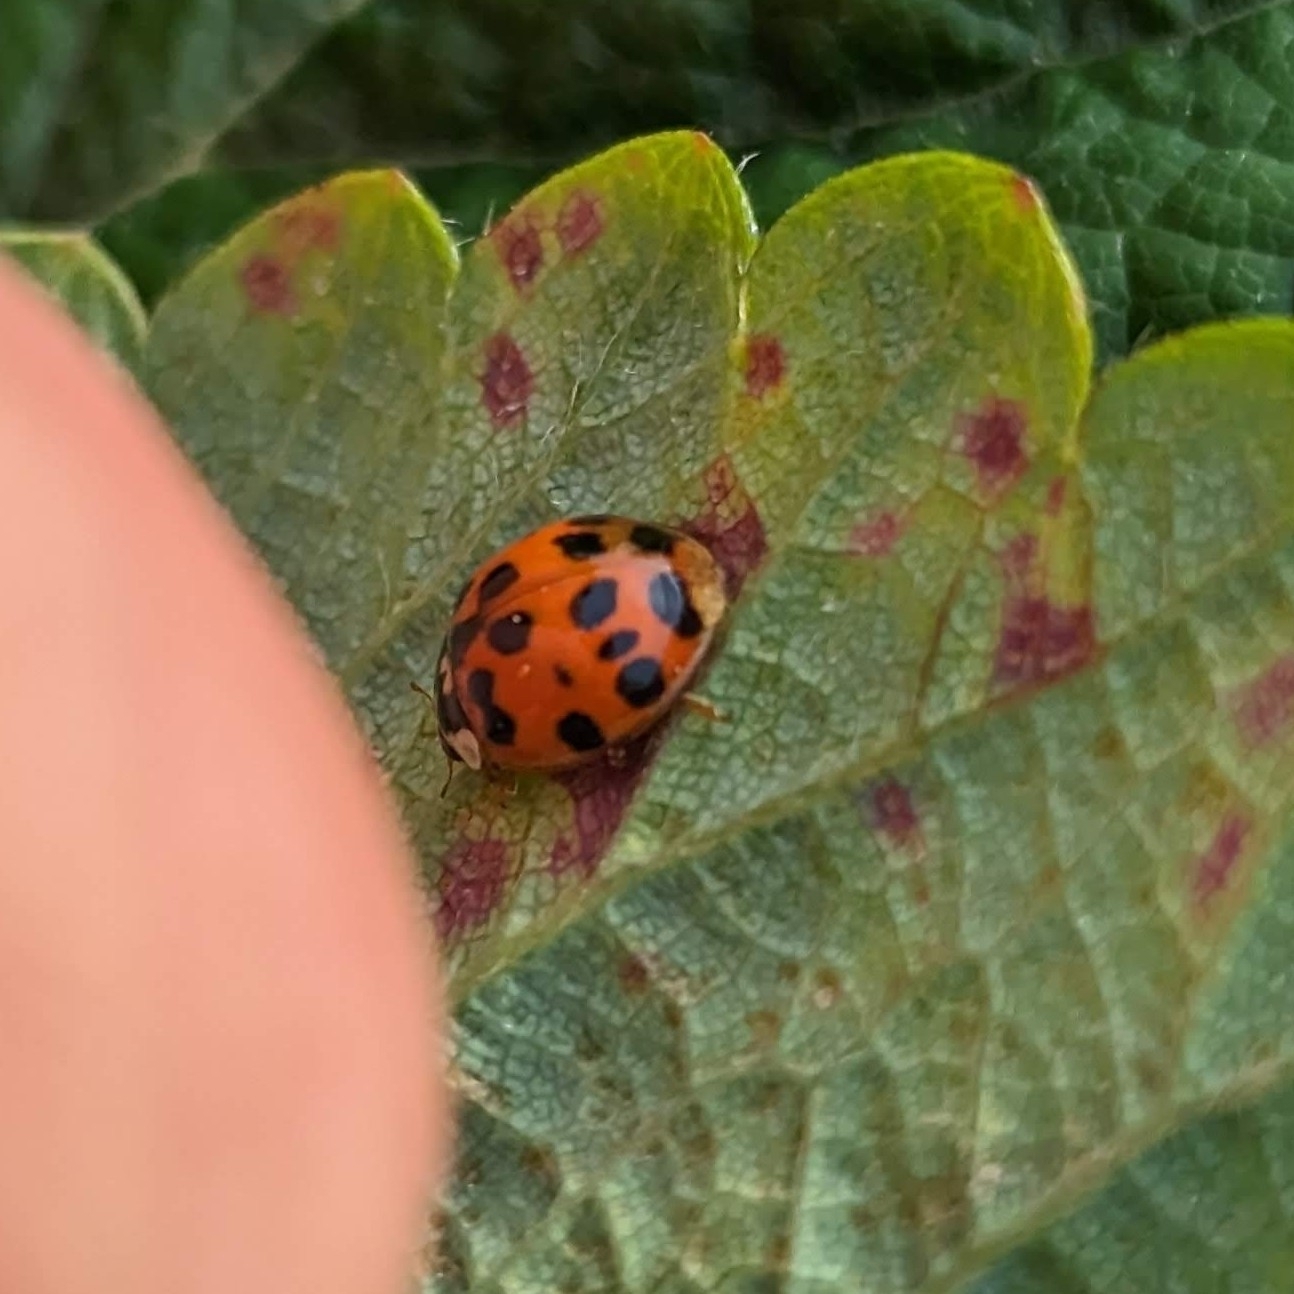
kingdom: Animalia
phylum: Arthropoda
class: Insecta
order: Coleoptera
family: Coccinellidae
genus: Harmonia
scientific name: Harmonia axyridis
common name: Harlequin ladybird
